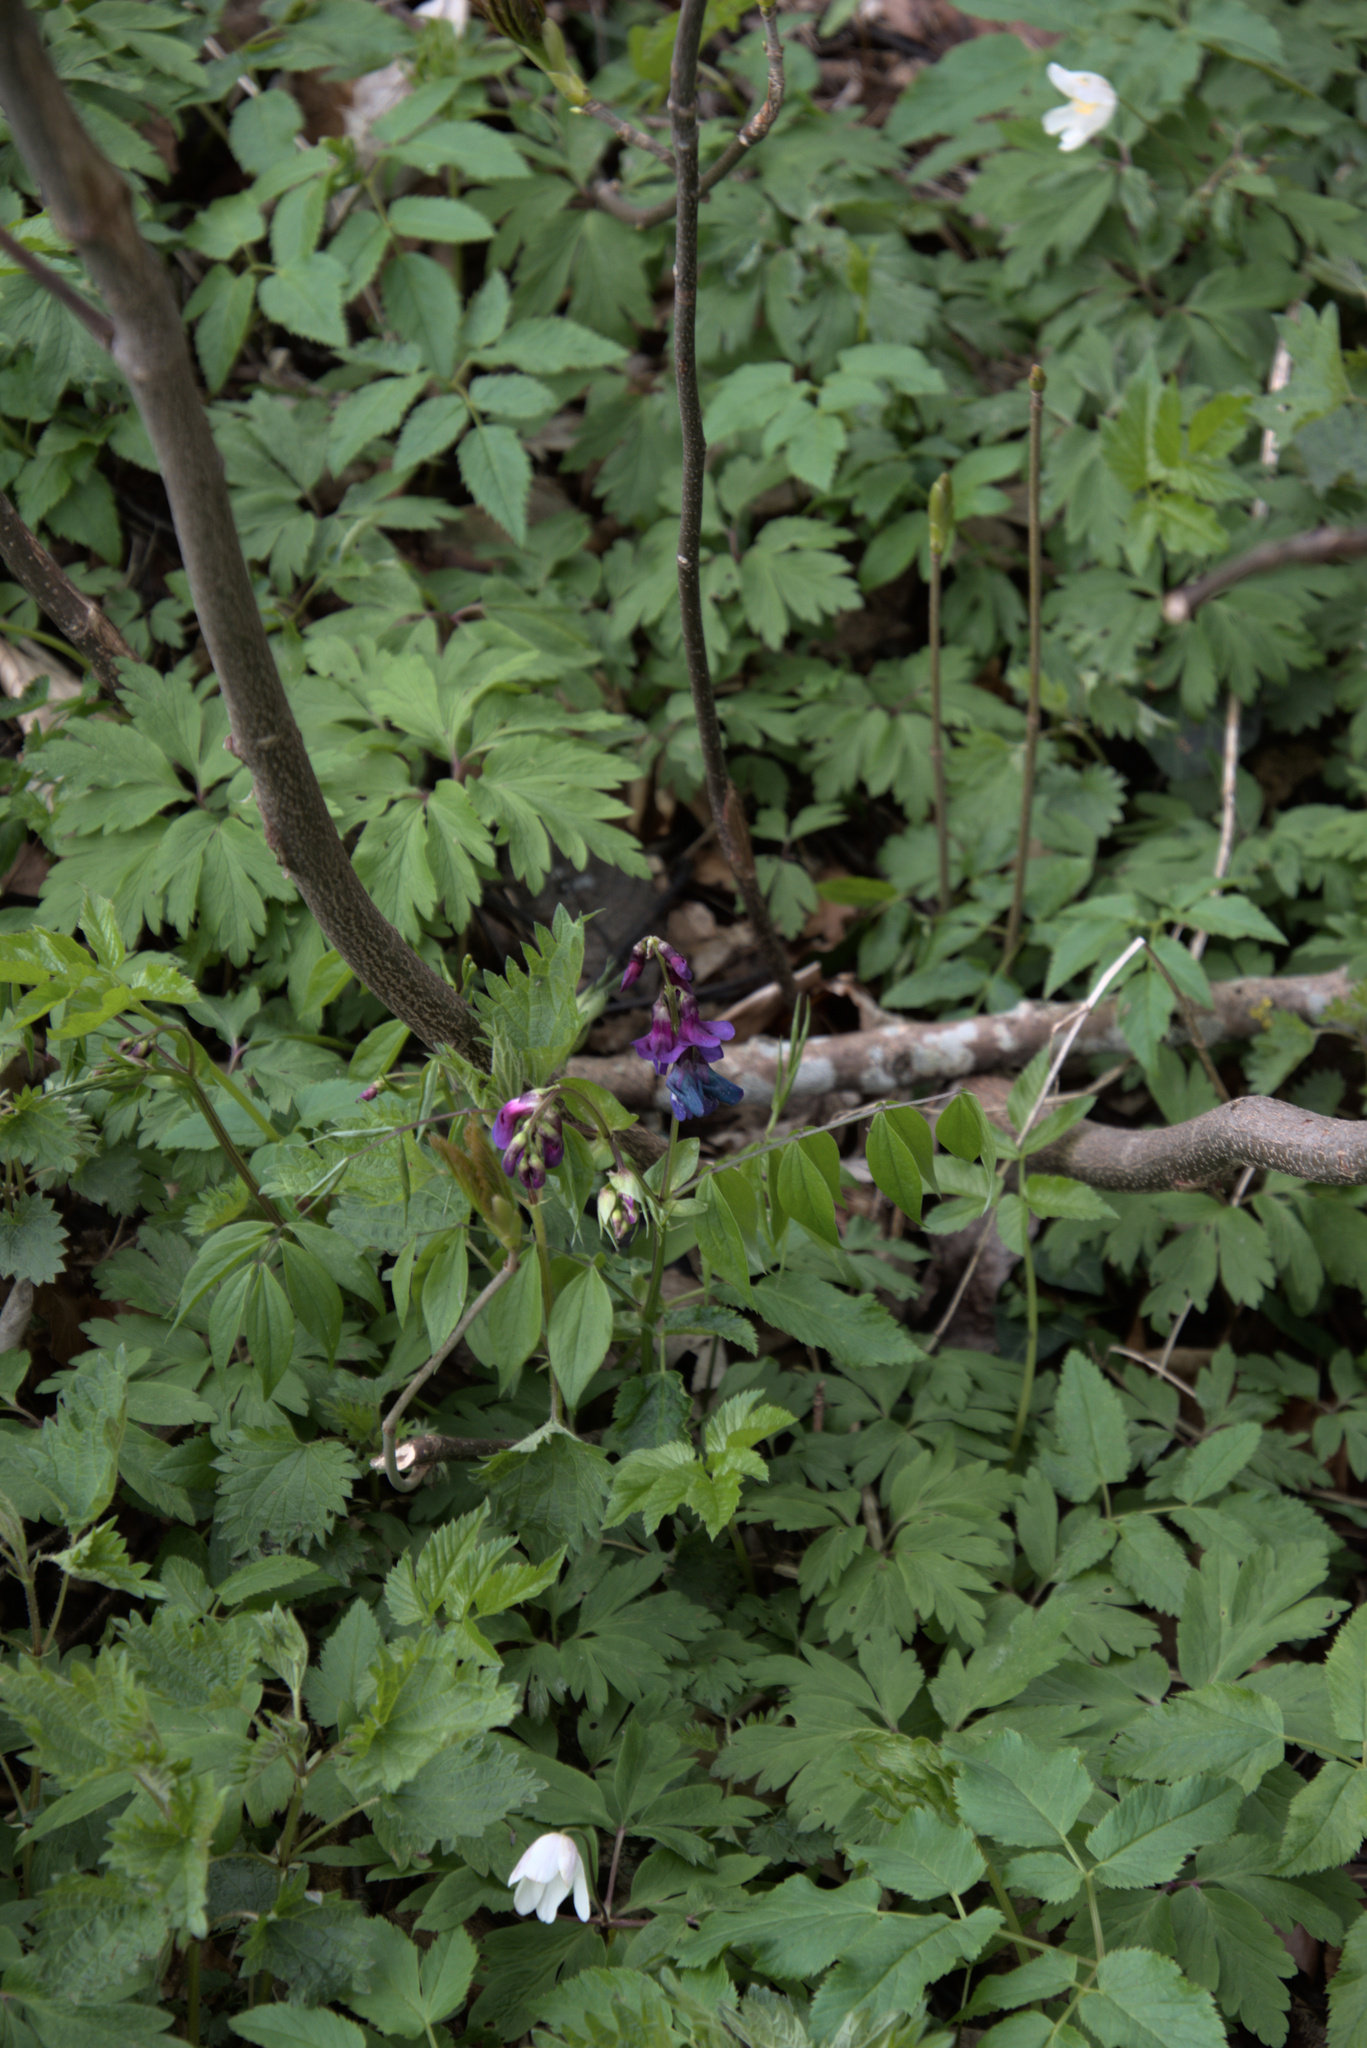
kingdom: Plantae
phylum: Tracheophyta
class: Magnoliopsida
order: Fabales
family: Fabaceae
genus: Lathyrus
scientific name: Lathyrus vernus
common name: Spring pea
